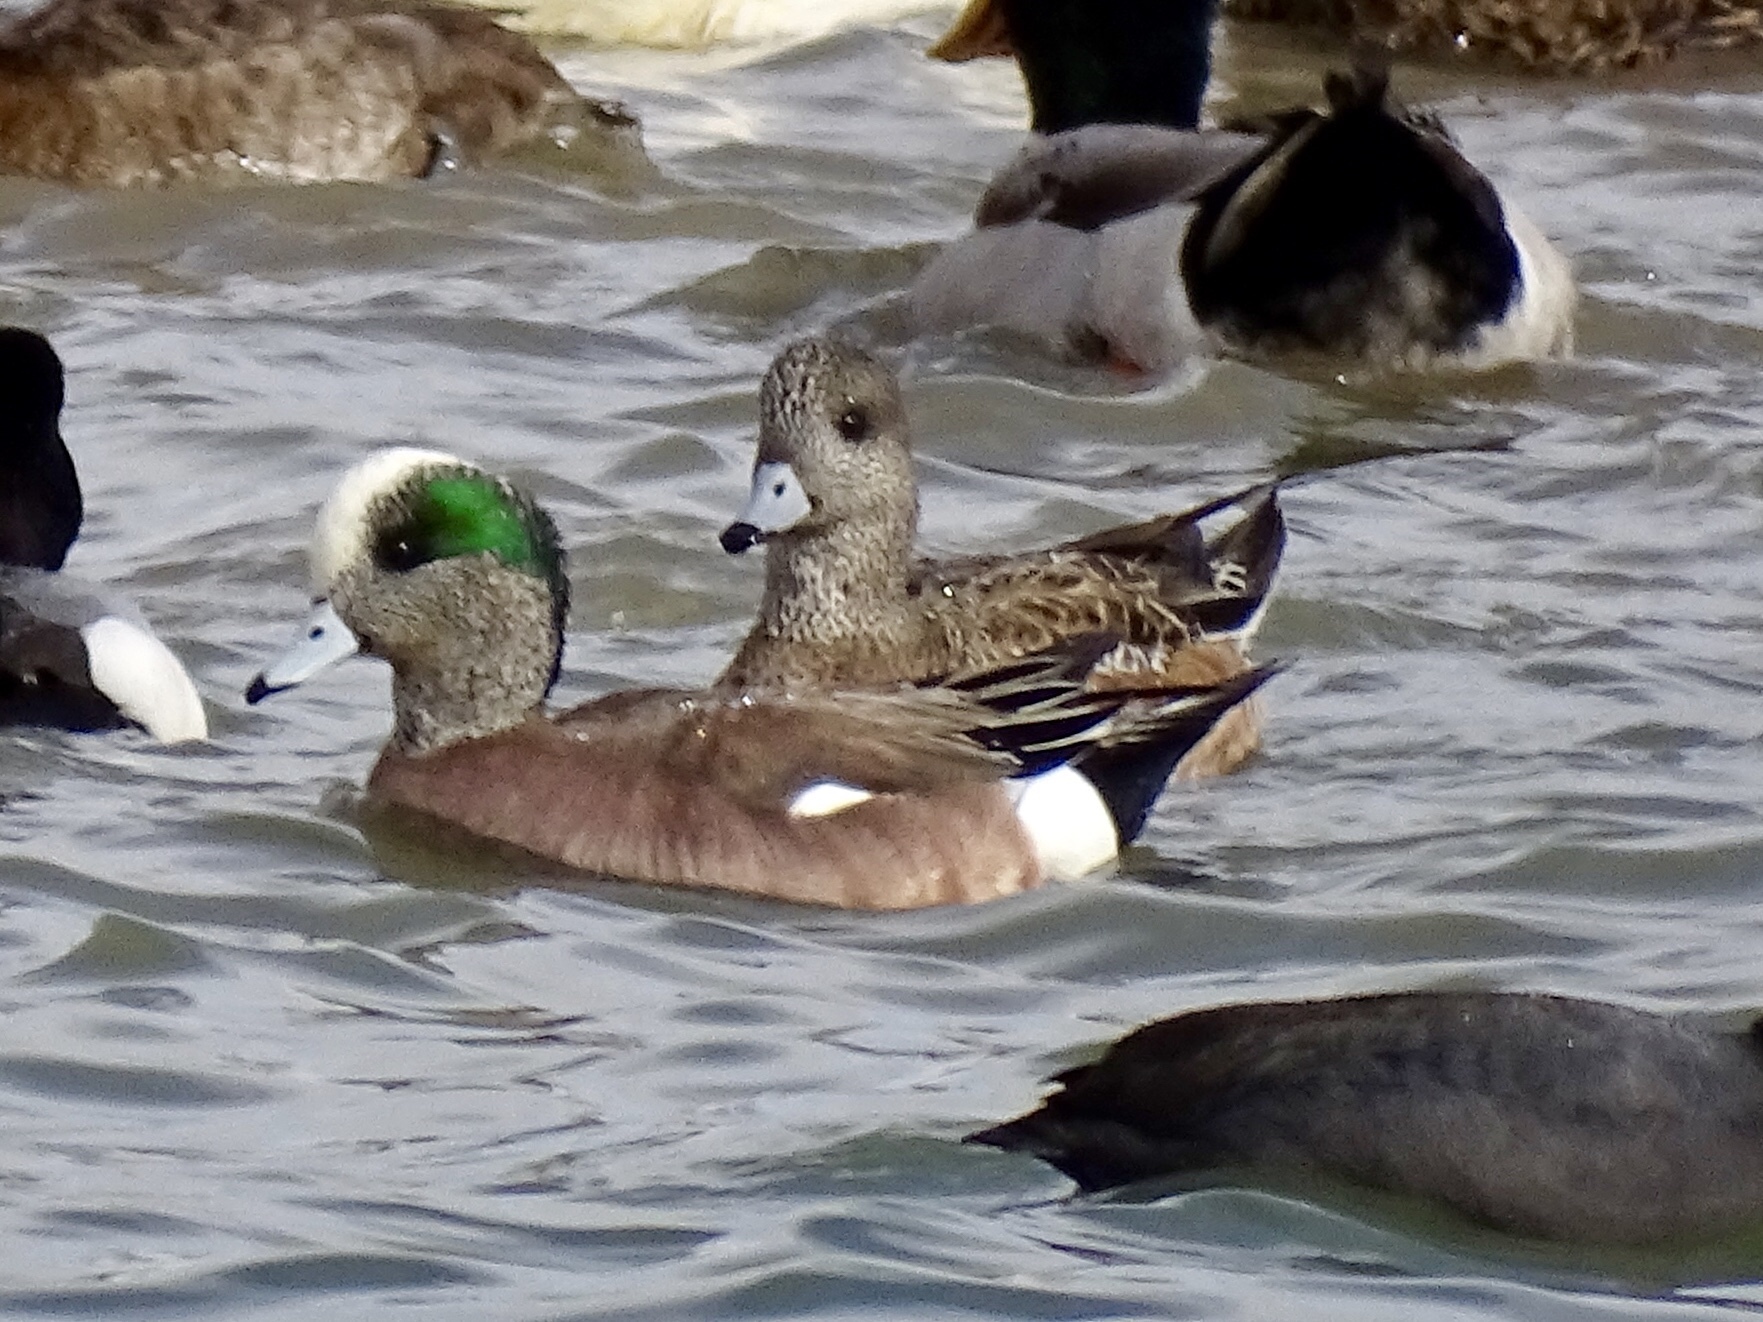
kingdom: Animalia
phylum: Chordata
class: Aves
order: Anseriformes
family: Anatidae
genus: Mareca
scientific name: Mareca americana
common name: American wigeon
